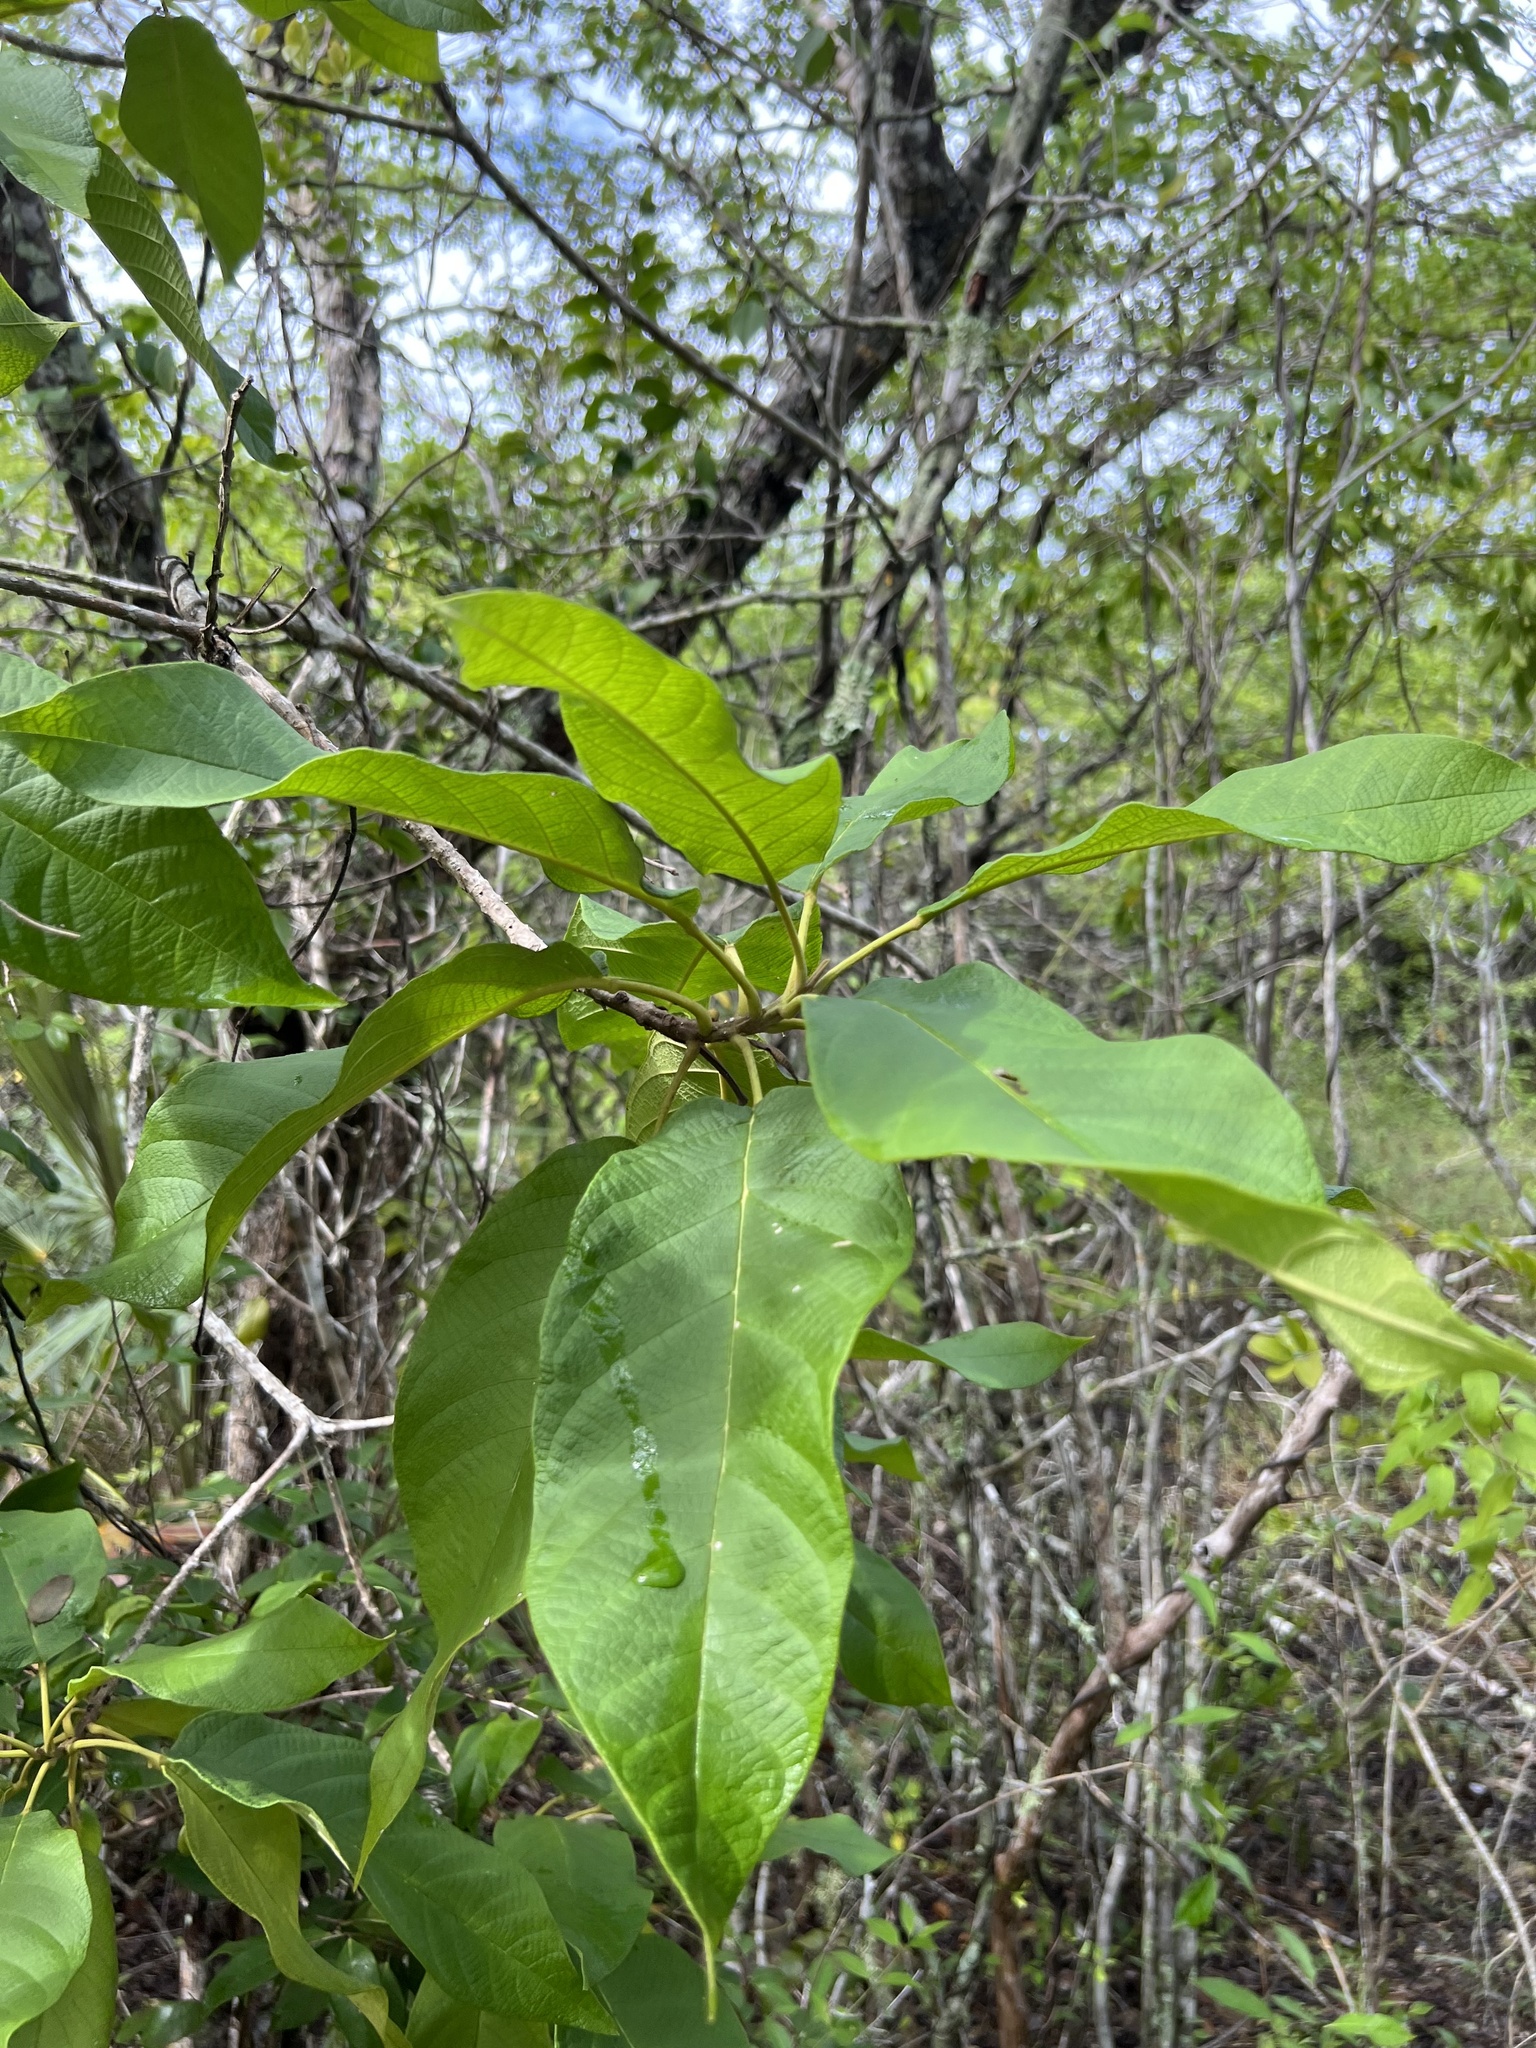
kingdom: Plantae
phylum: Tracheophyta
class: Magnoliopsida
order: Boraginales
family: Cordiaceae
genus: Cordia
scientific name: Cordia sebestena
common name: Largeleaf geigertree
